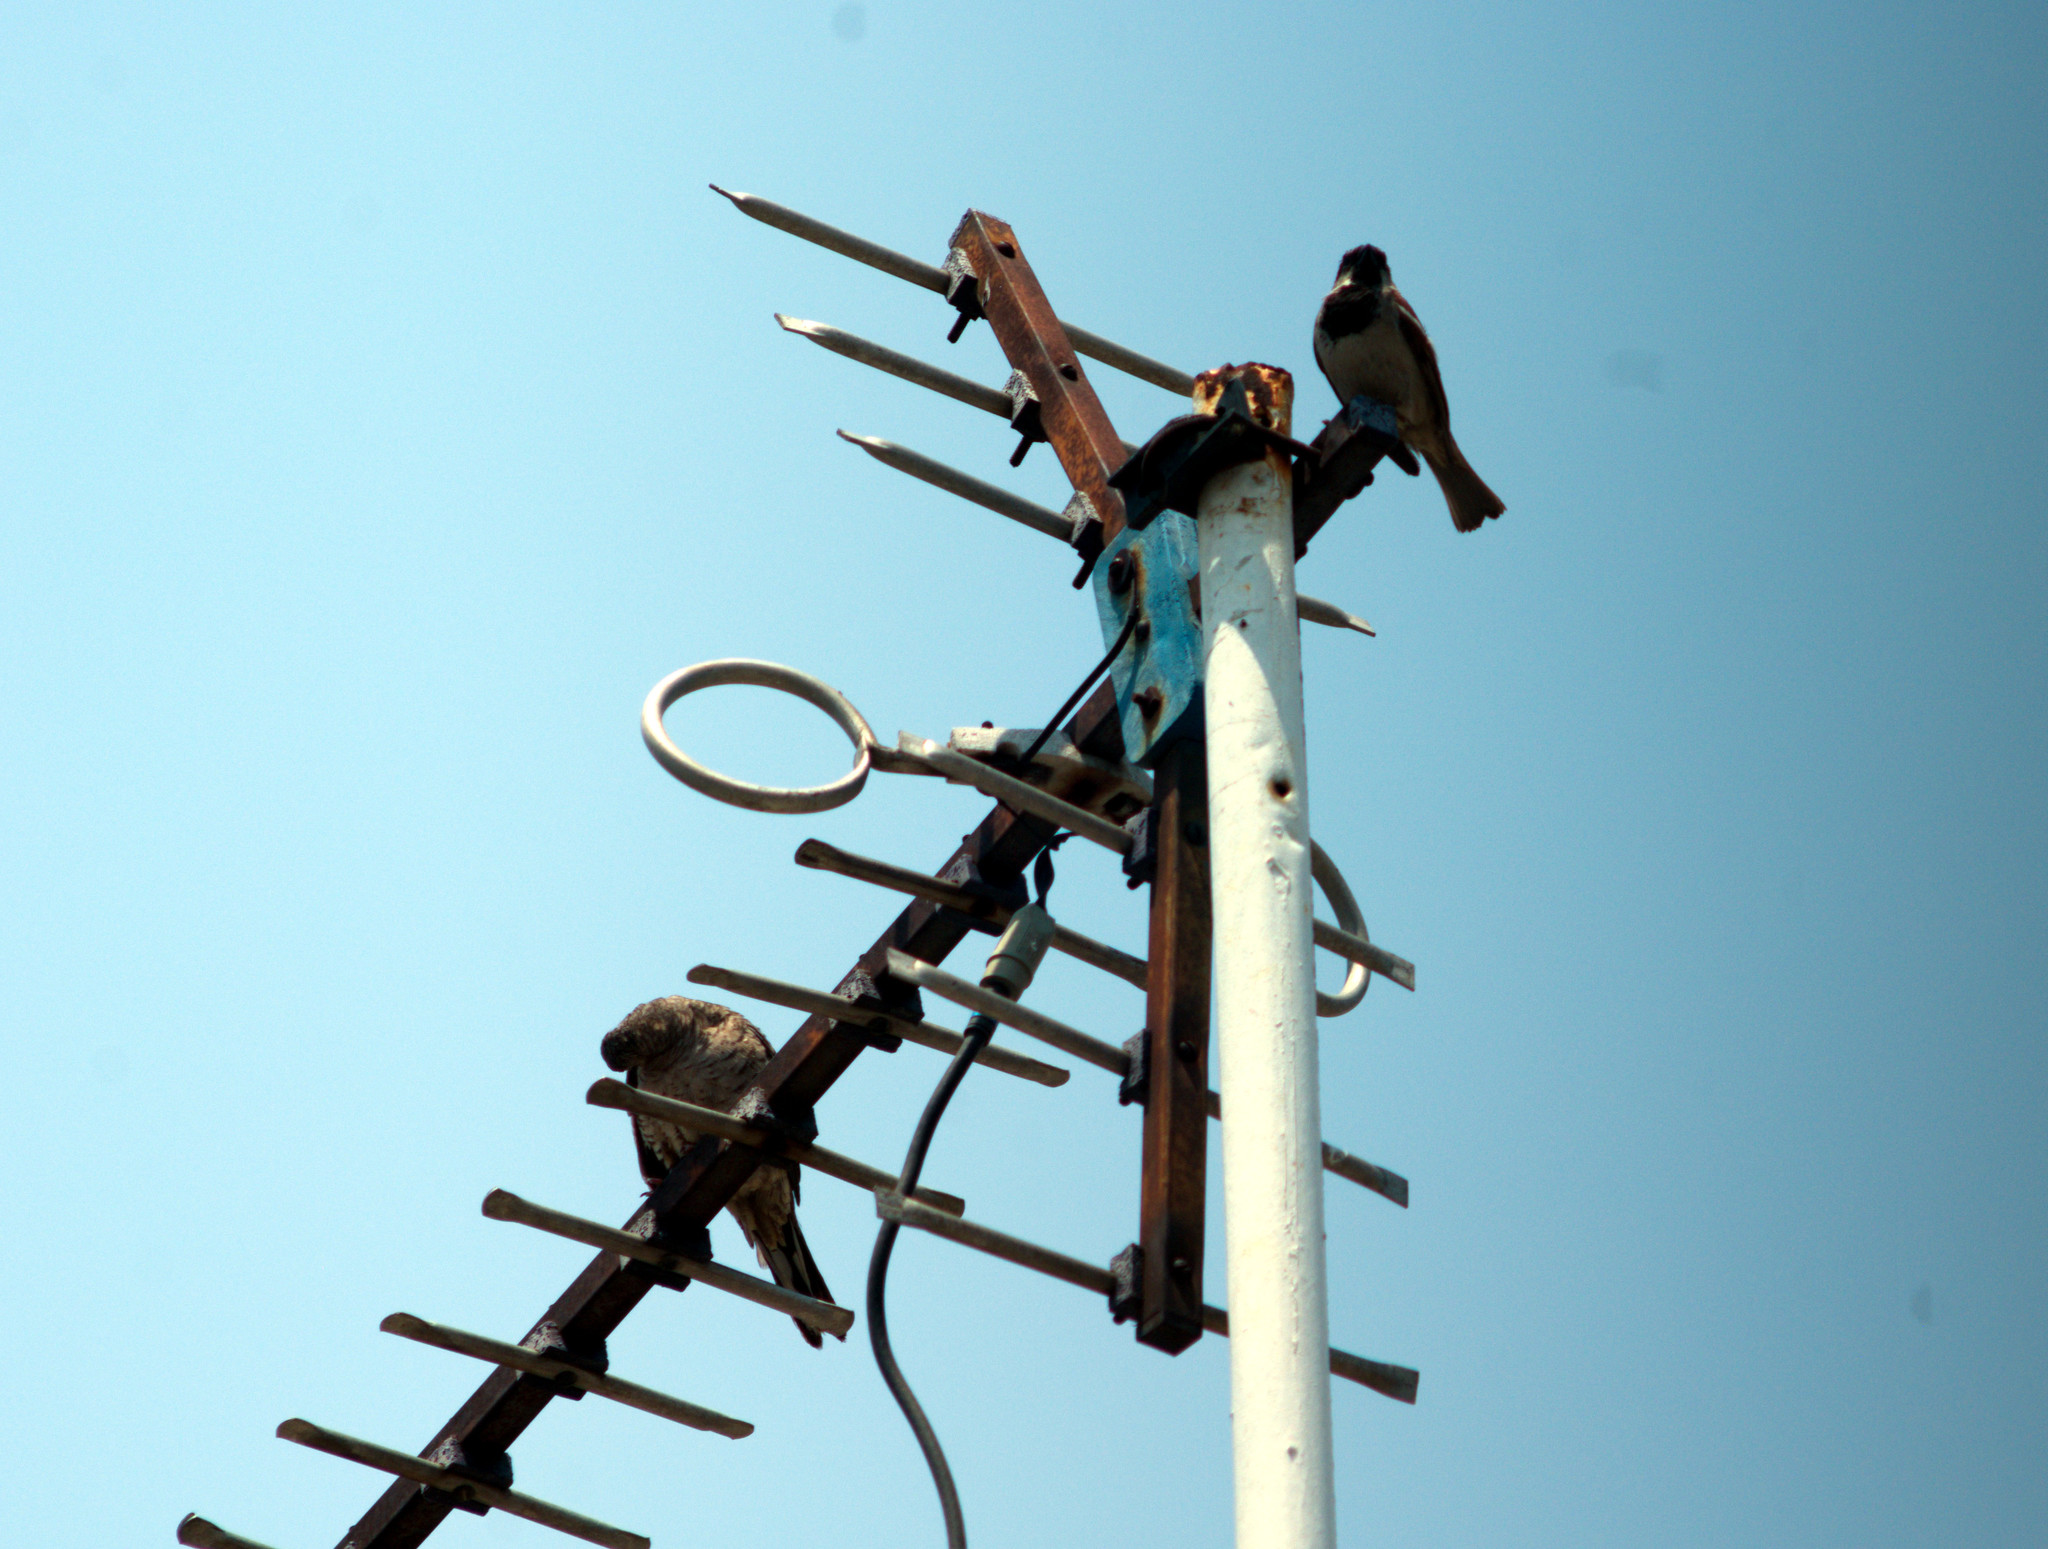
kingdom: Animalia
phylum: Chordata
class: Aves
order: Columbiformes
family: Columbidae
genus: Columbina
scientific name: Columbina inca
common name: Inca dove
